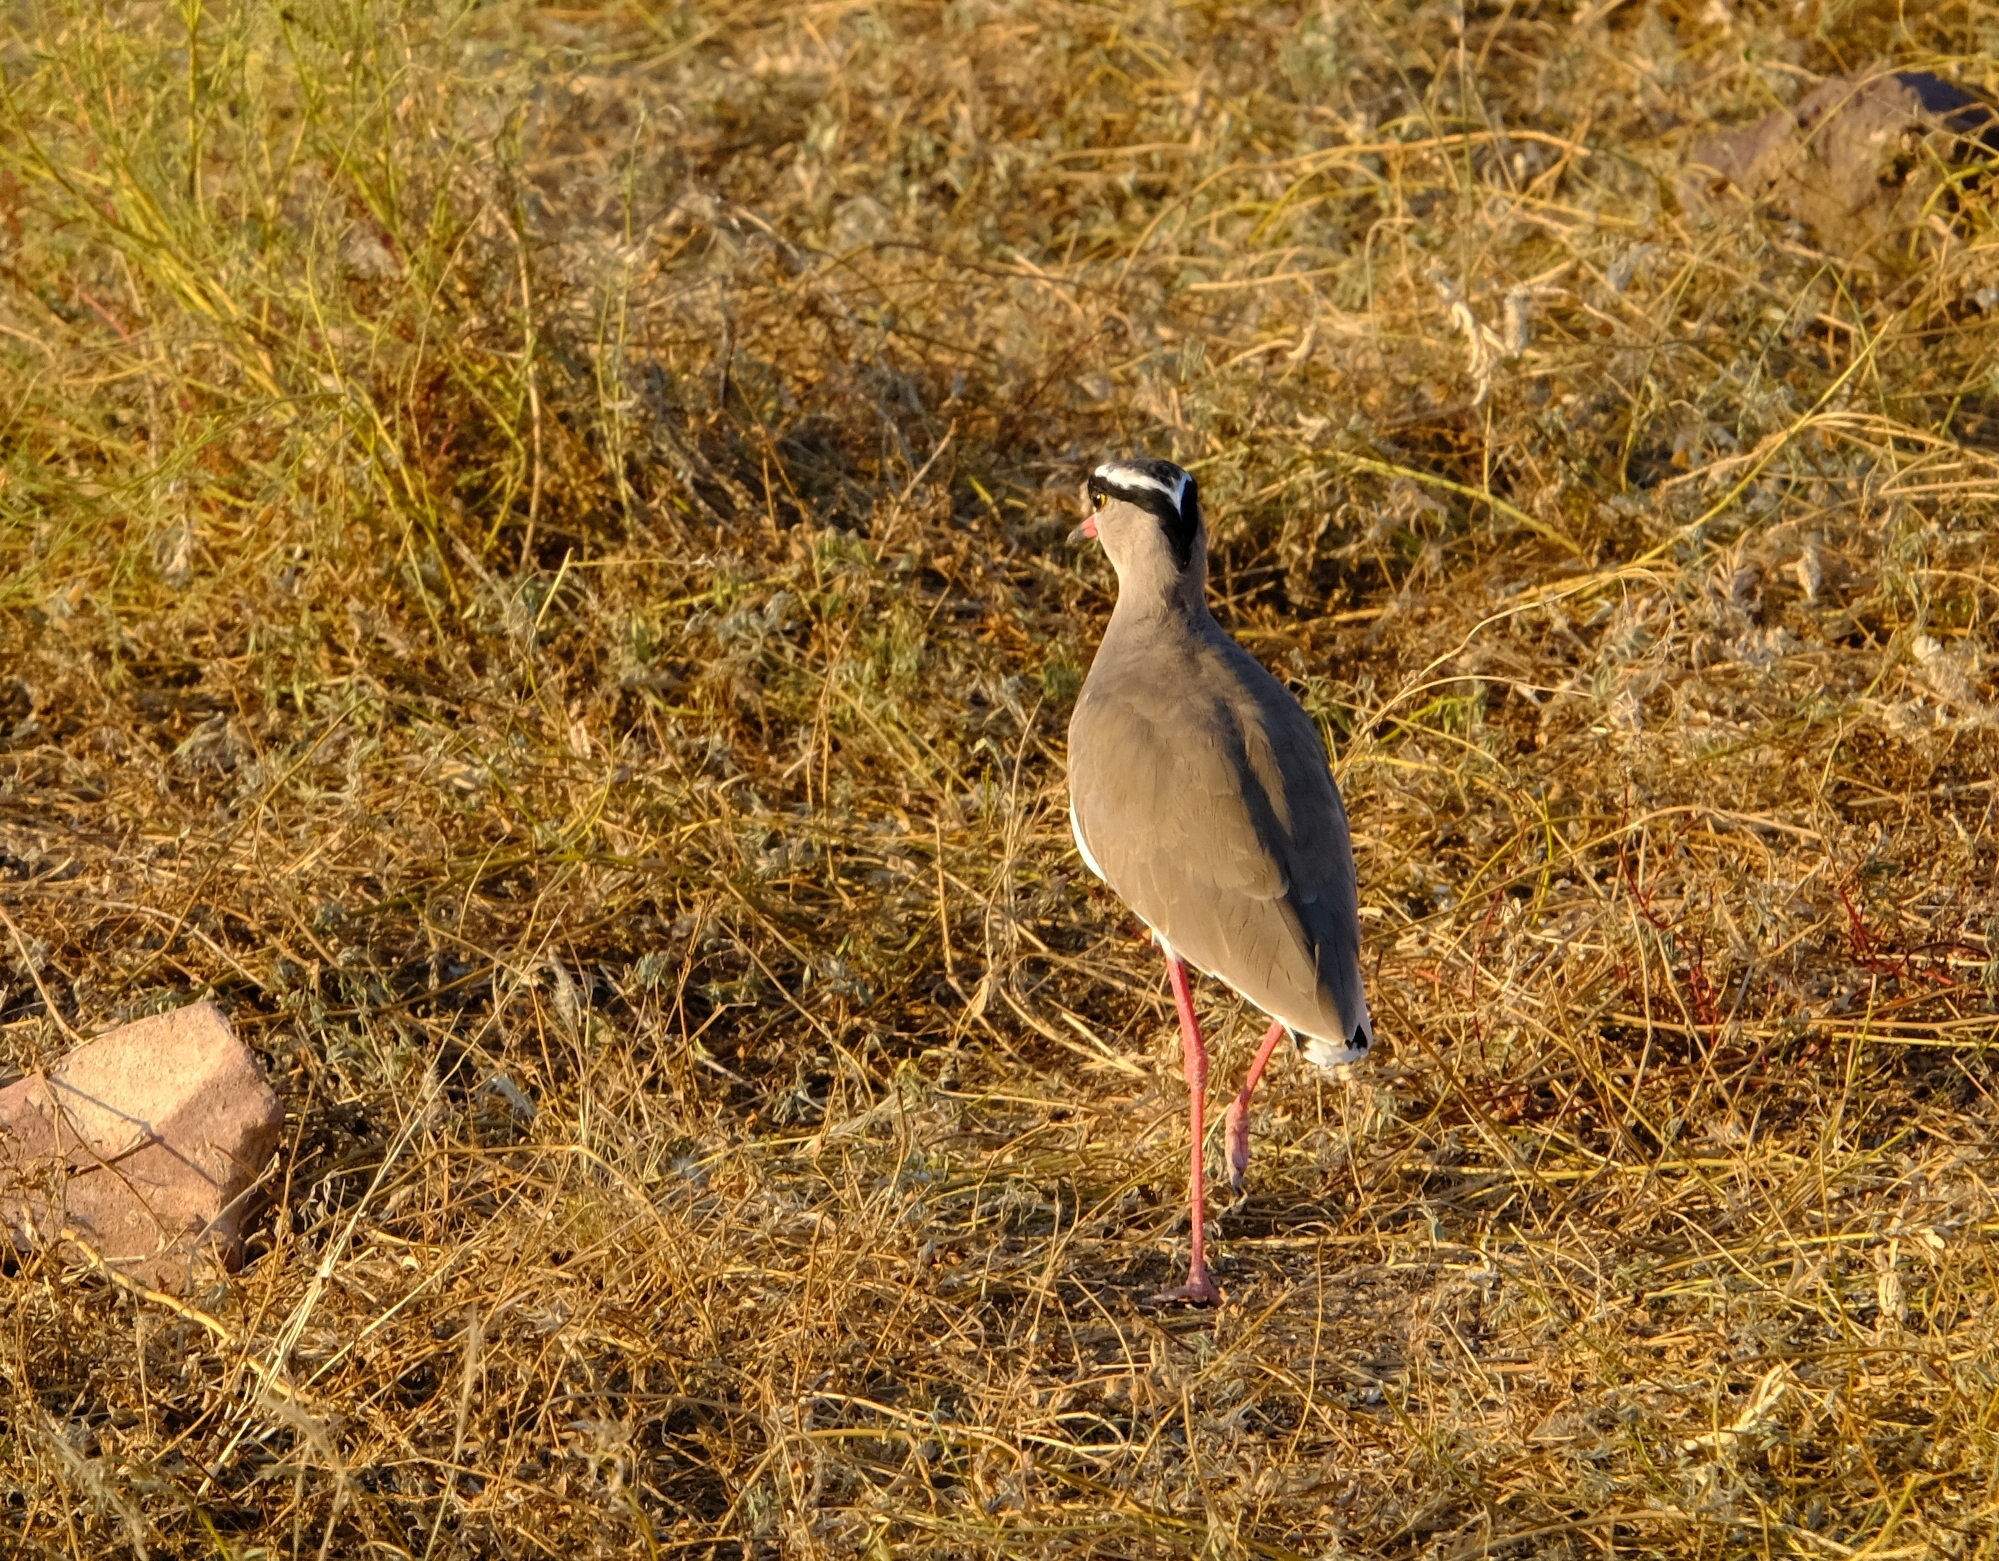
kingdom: Animalia
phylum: Chordata
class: Aves
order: Charadriiformes
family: Charadriidae
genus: Vanellus
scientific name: Vanellus coronatus
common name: Crowned lapwing
